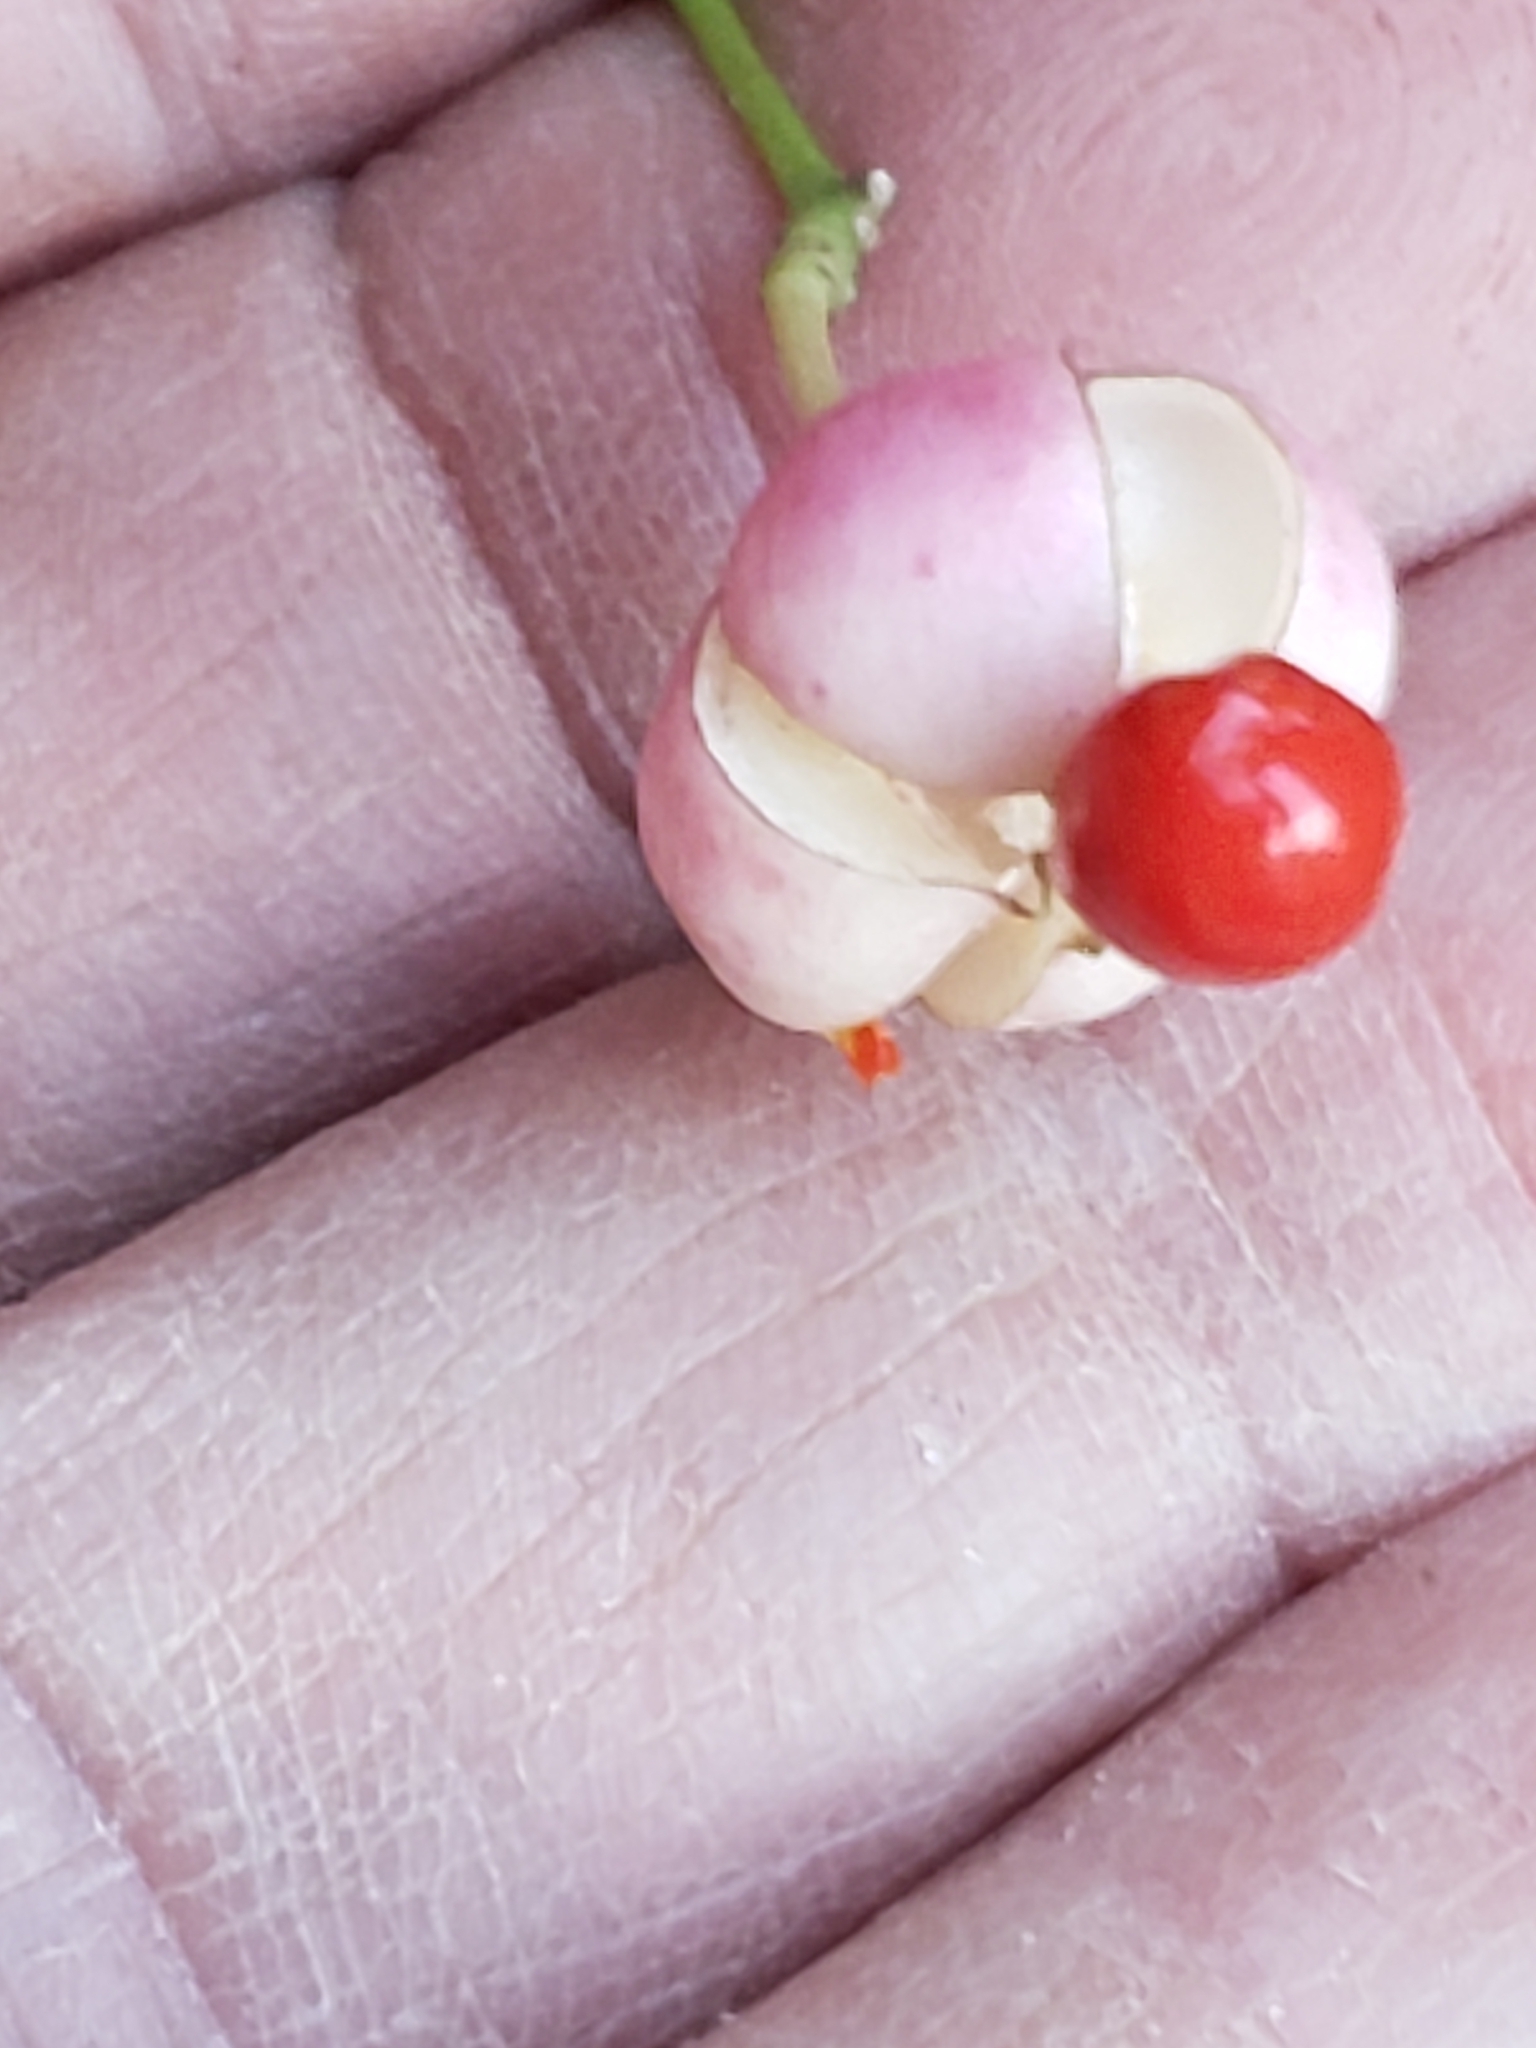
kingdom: Plantae
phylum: Tracheophyta
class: Magnoliopsida
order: Celastrales
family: Celastraceae
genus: Euonymus
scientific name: Euonymus fortunei
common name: Climbing euonymus
